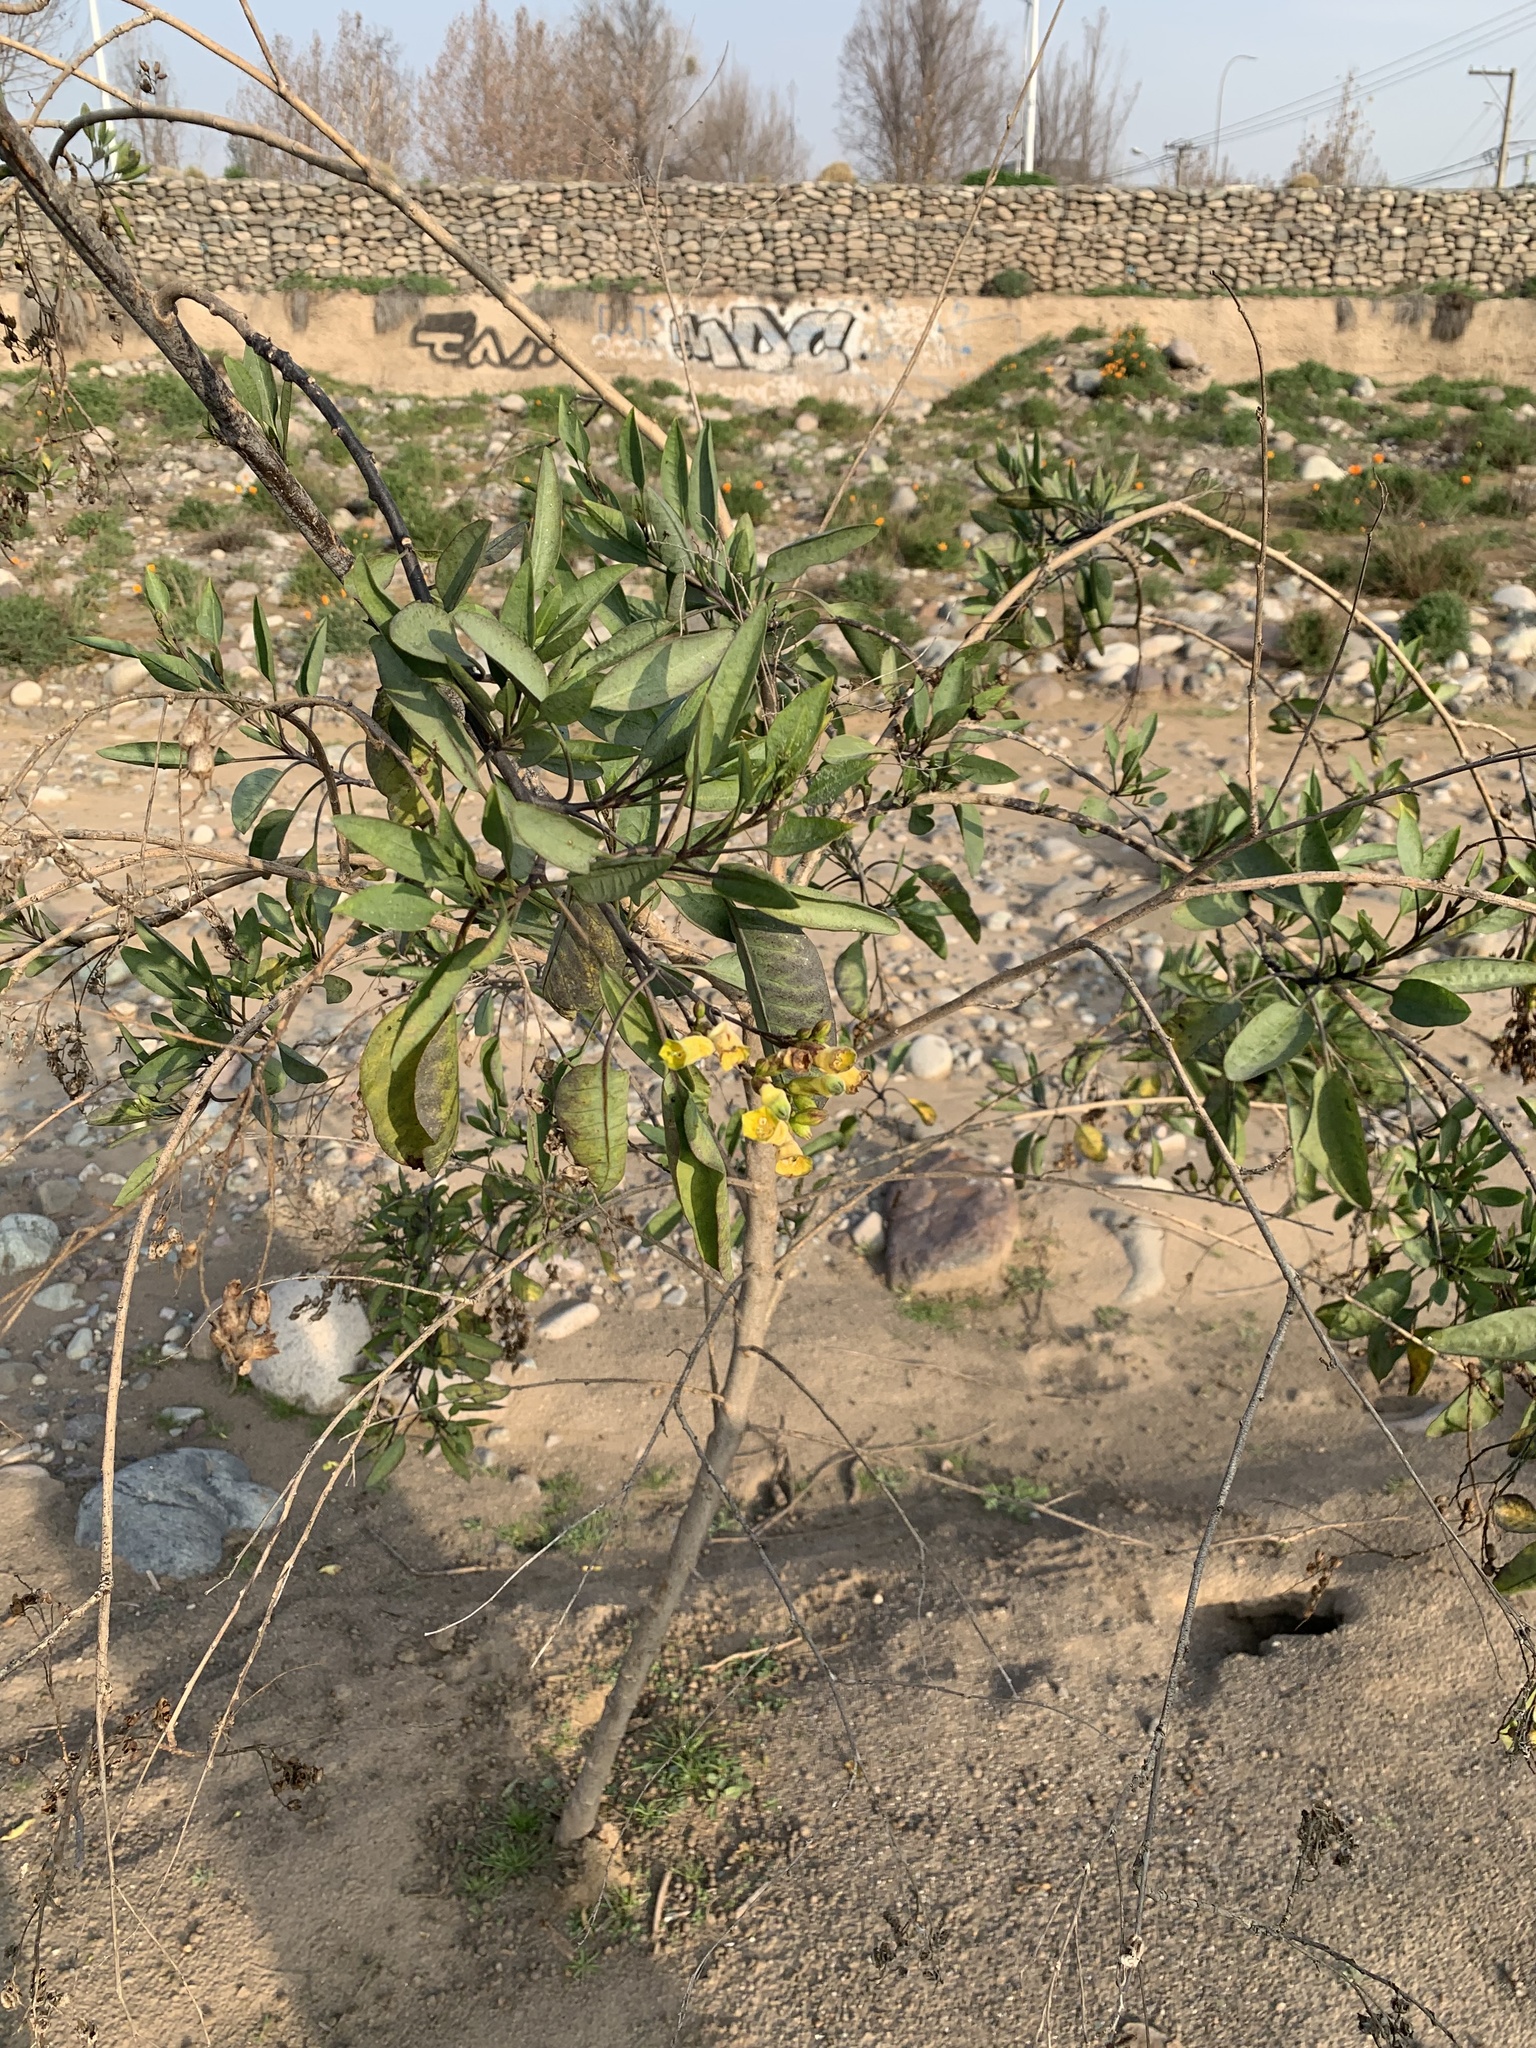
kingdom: Plantae
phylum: Tracheophyta
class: Magnoliopsida
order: Solanales
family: Solanaceae
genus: Nicotiana
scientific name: Nicotiana glauca
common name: Tree tobacco
